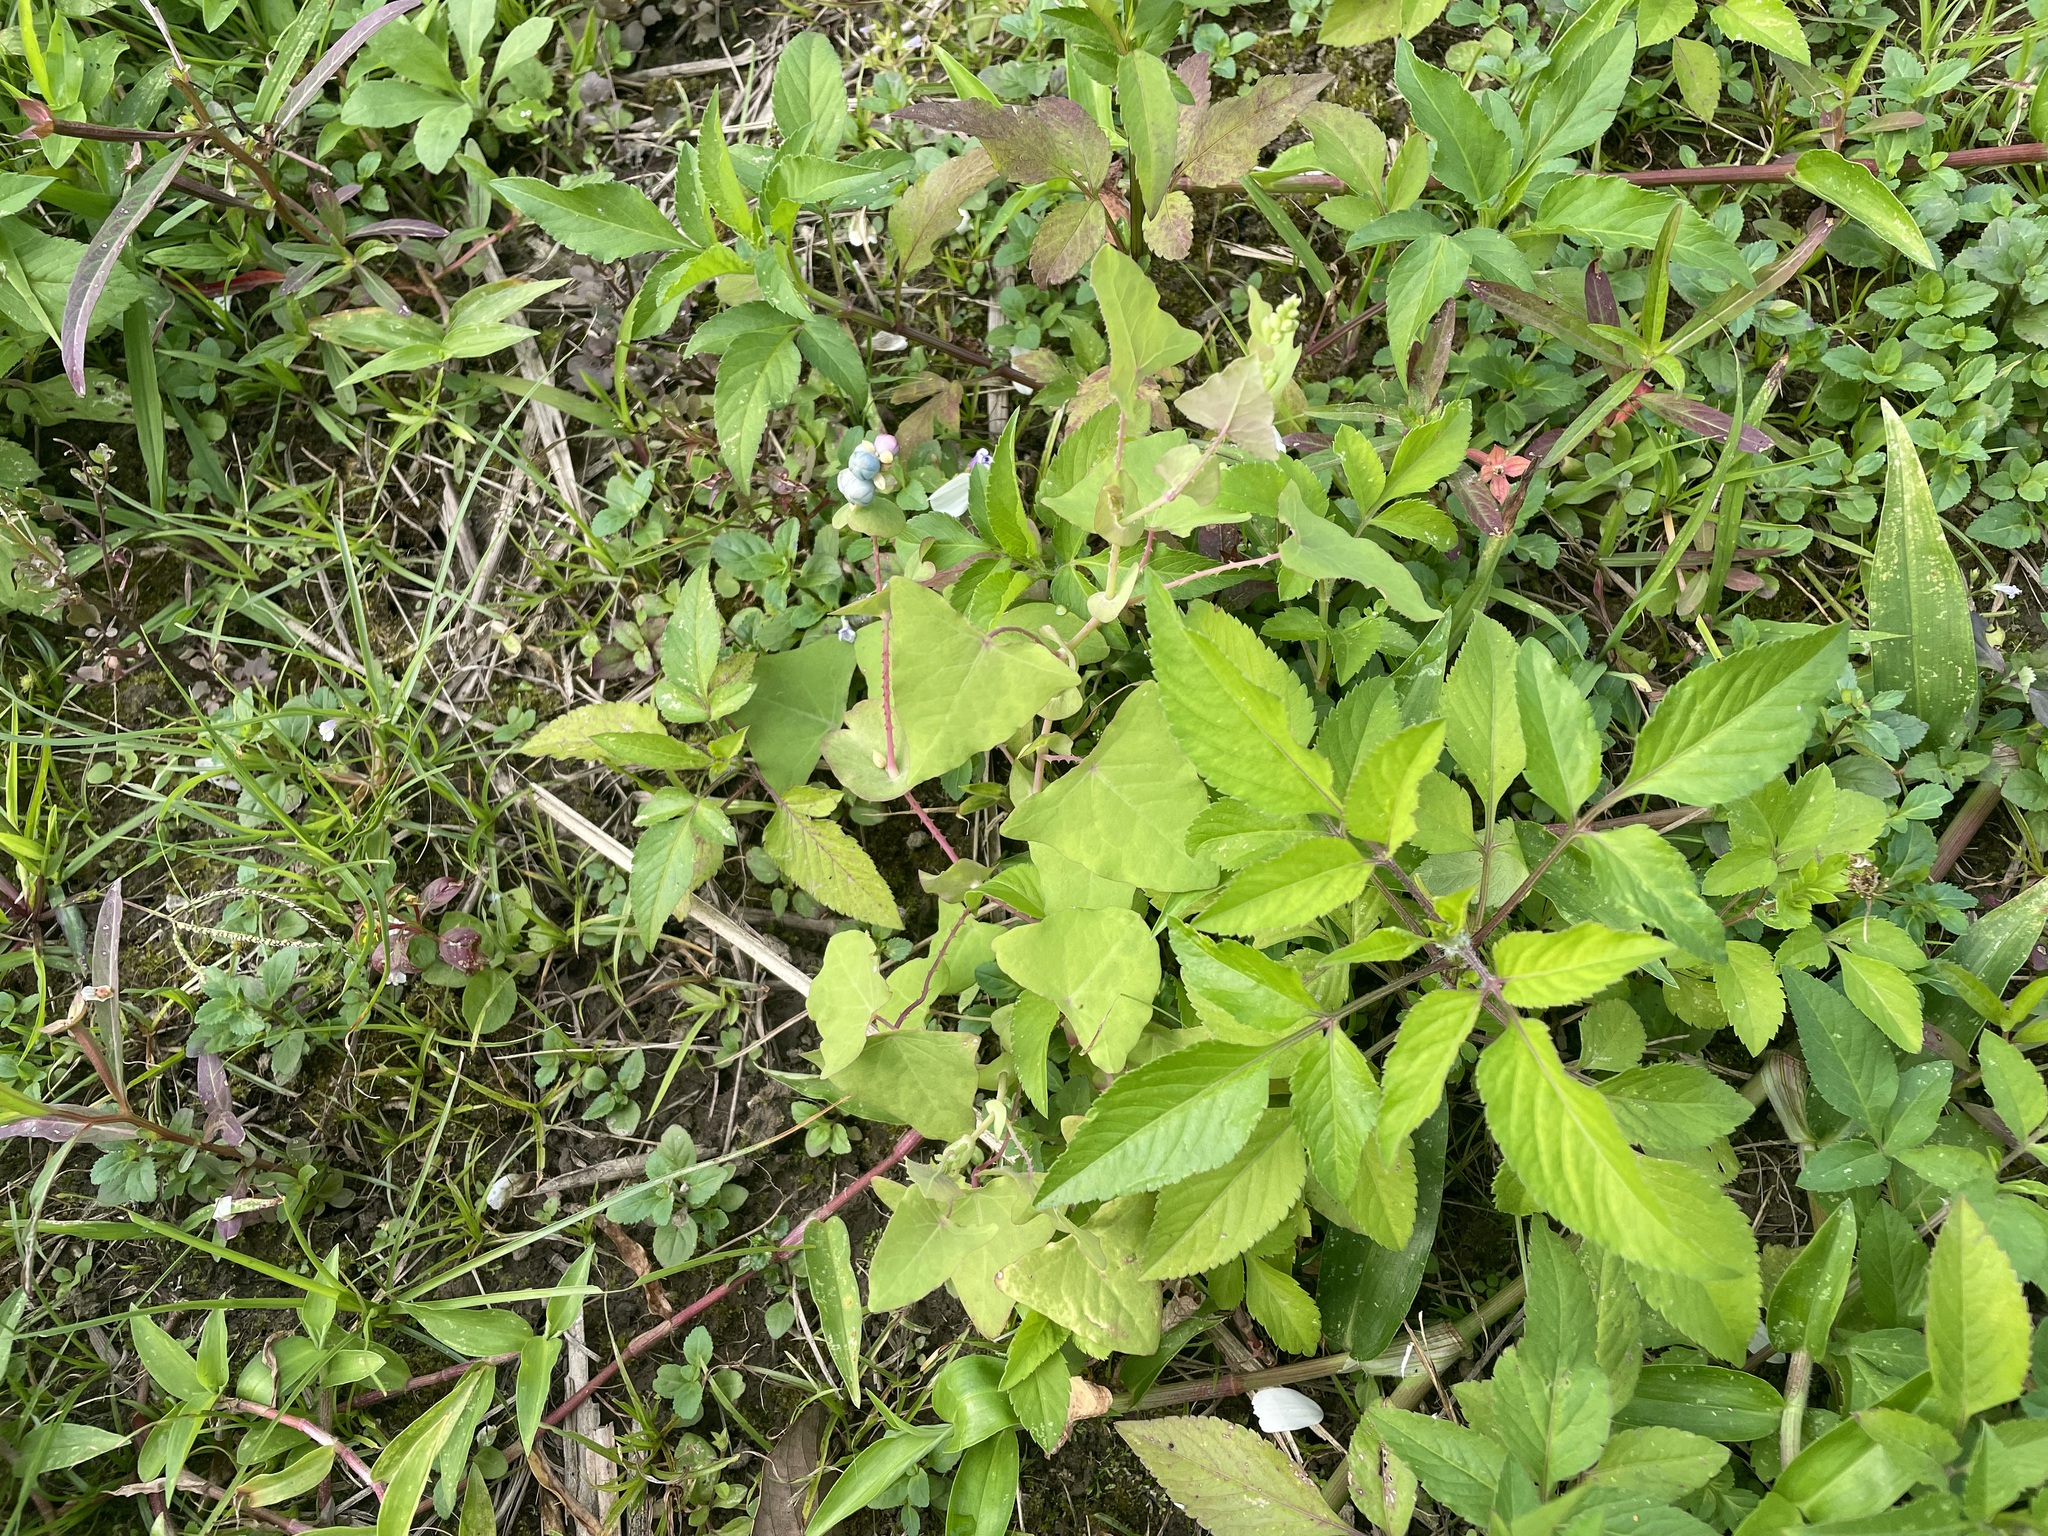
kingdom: Plantae
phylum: Tracheophyta
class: Magnoliopsida
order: Caryophyllales
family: Polygonaceae
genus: Persicaria
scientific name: Persicaria perfoliata
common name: Asiatic tearthumb
